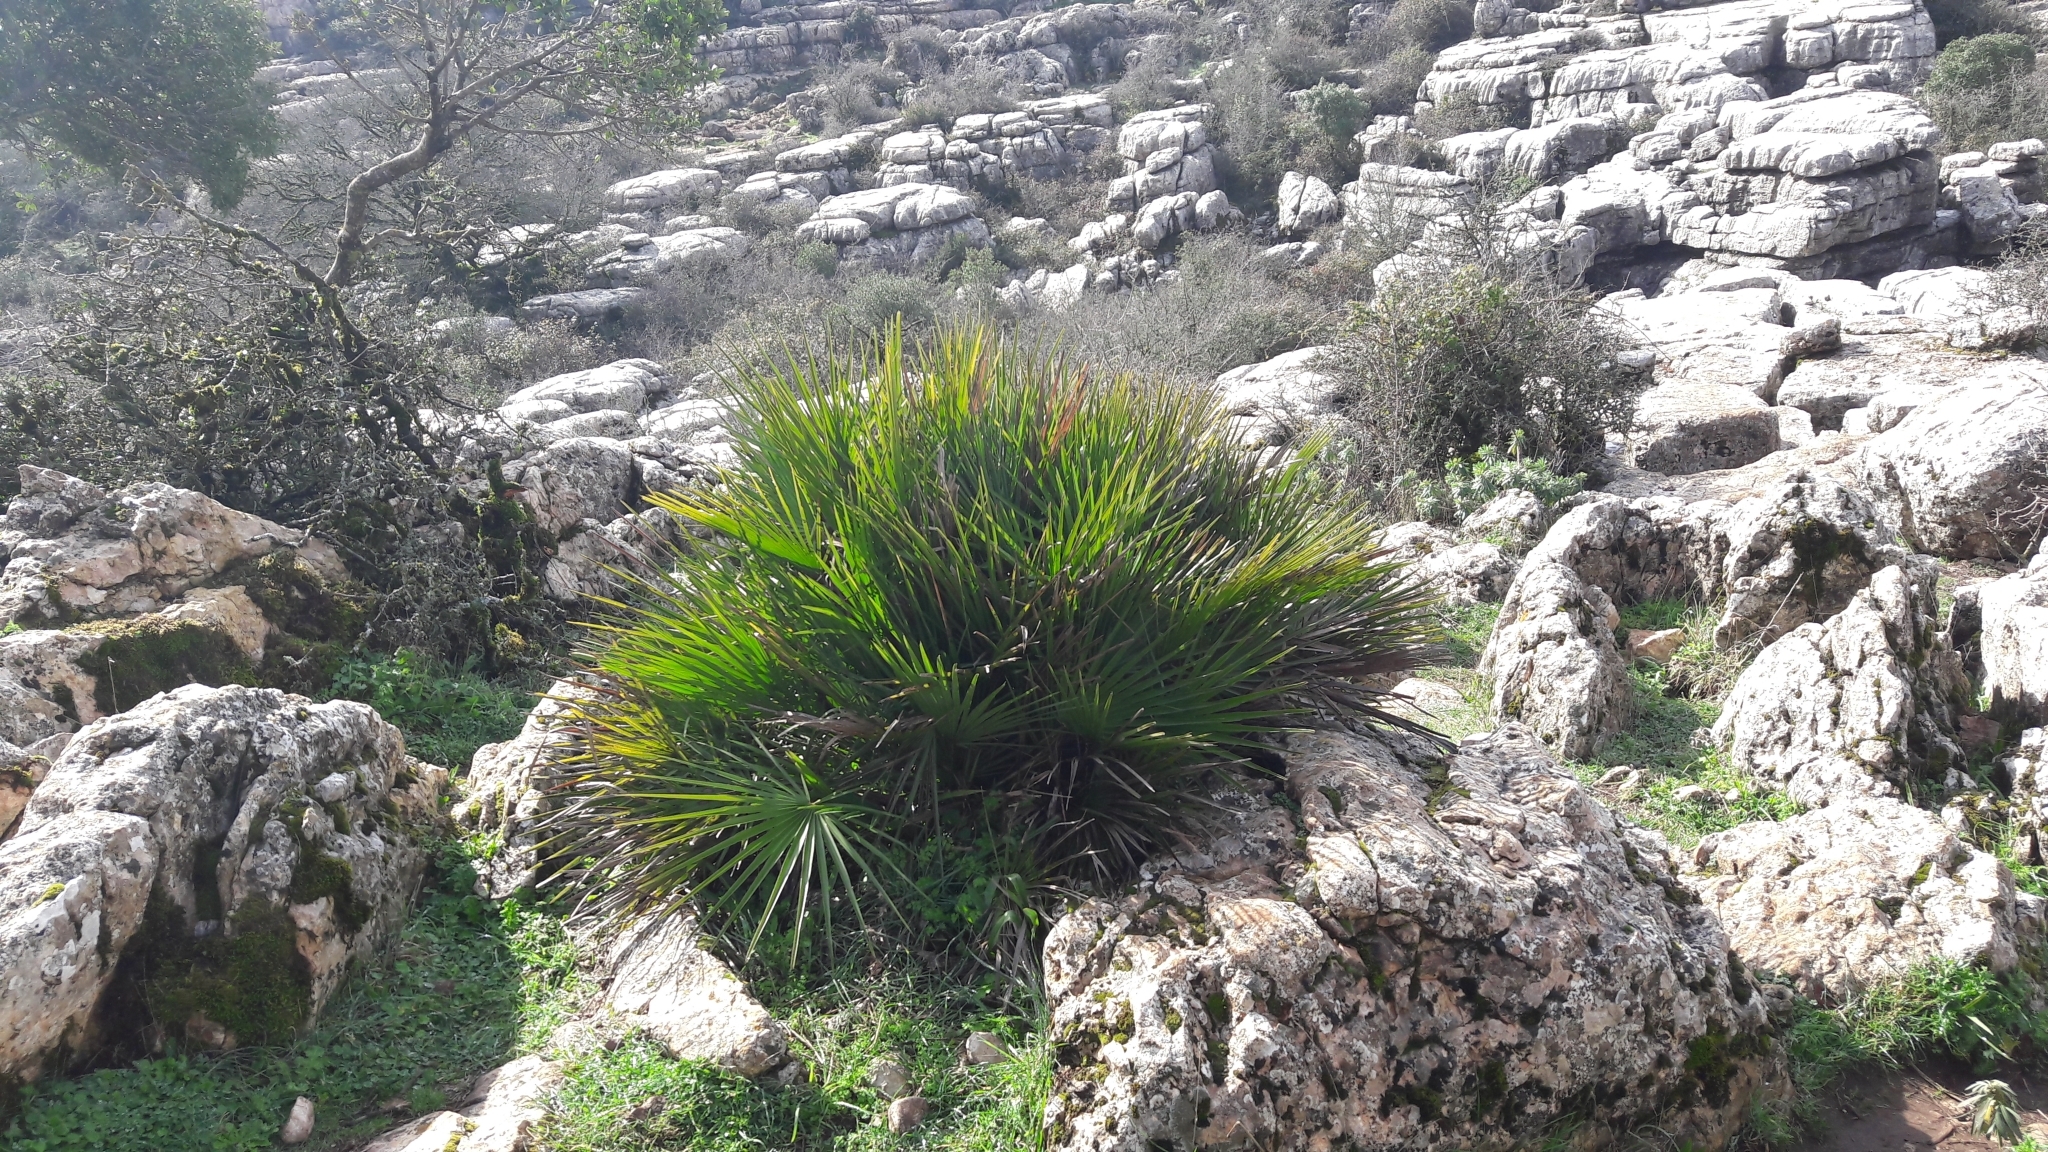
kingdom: Plantae
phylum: Tracheophyta
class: Liliopsida
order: Arecales
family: Arecaceae
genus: Chamaerops
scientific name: Chamaerops humilis
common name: Dwarf fan palm
